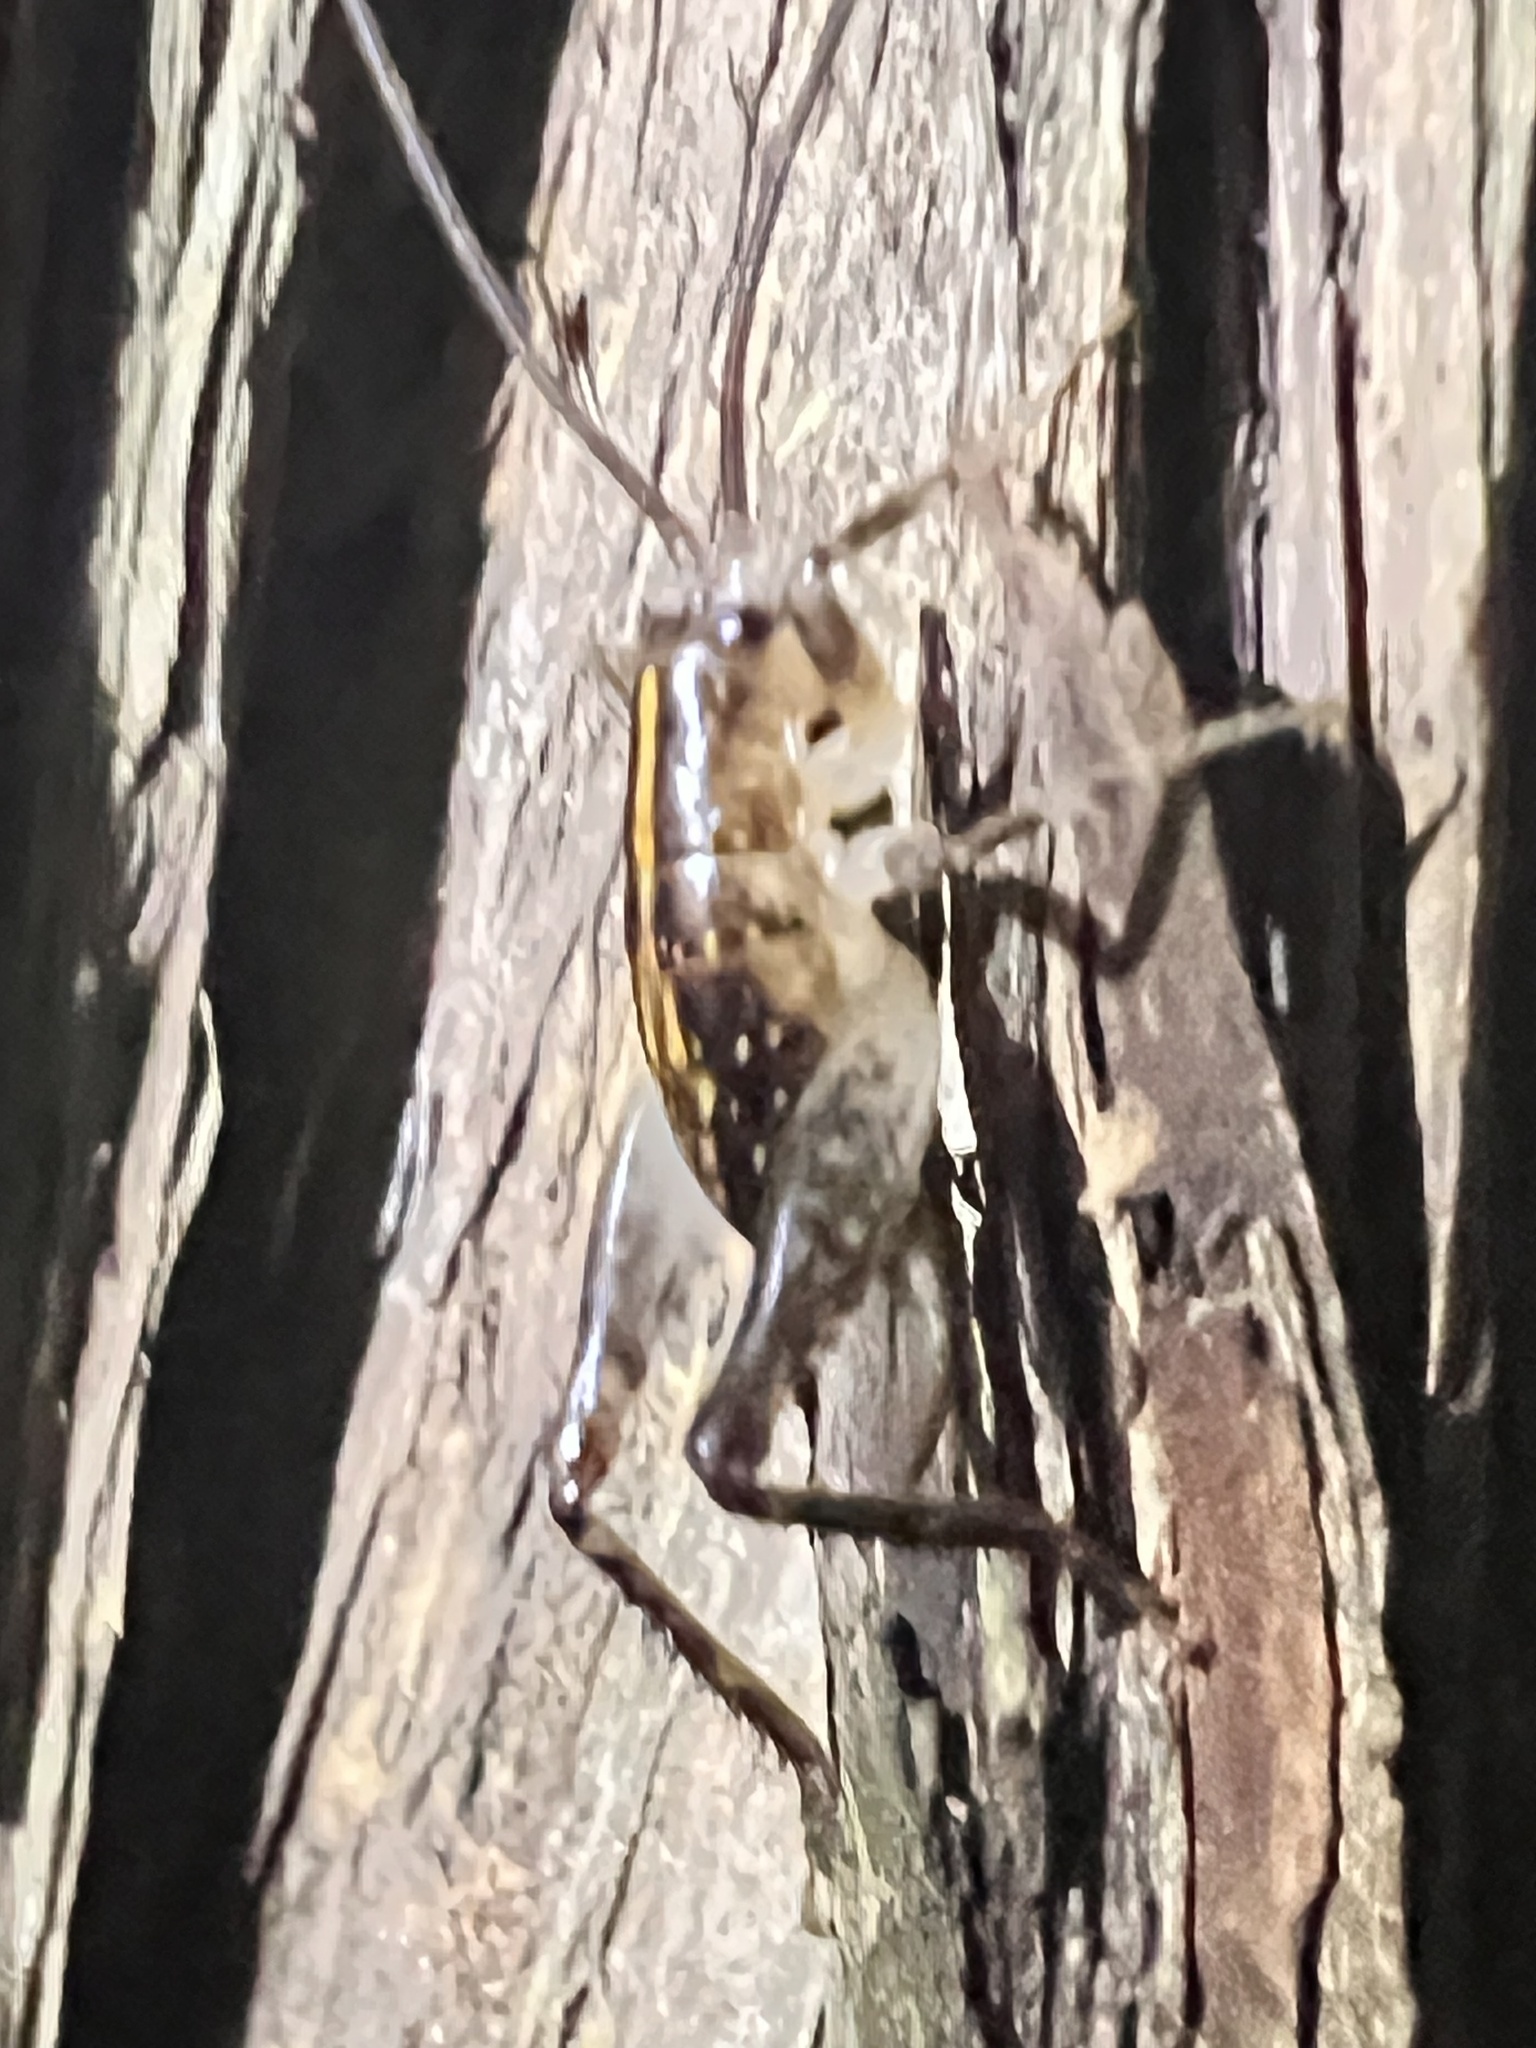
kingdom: Animalia
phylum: Arthropoda
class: Insecta
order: Orthoptera
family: Anostostomatidae
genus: Hemiandrus
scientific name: Hemiandrus pallitarsis
